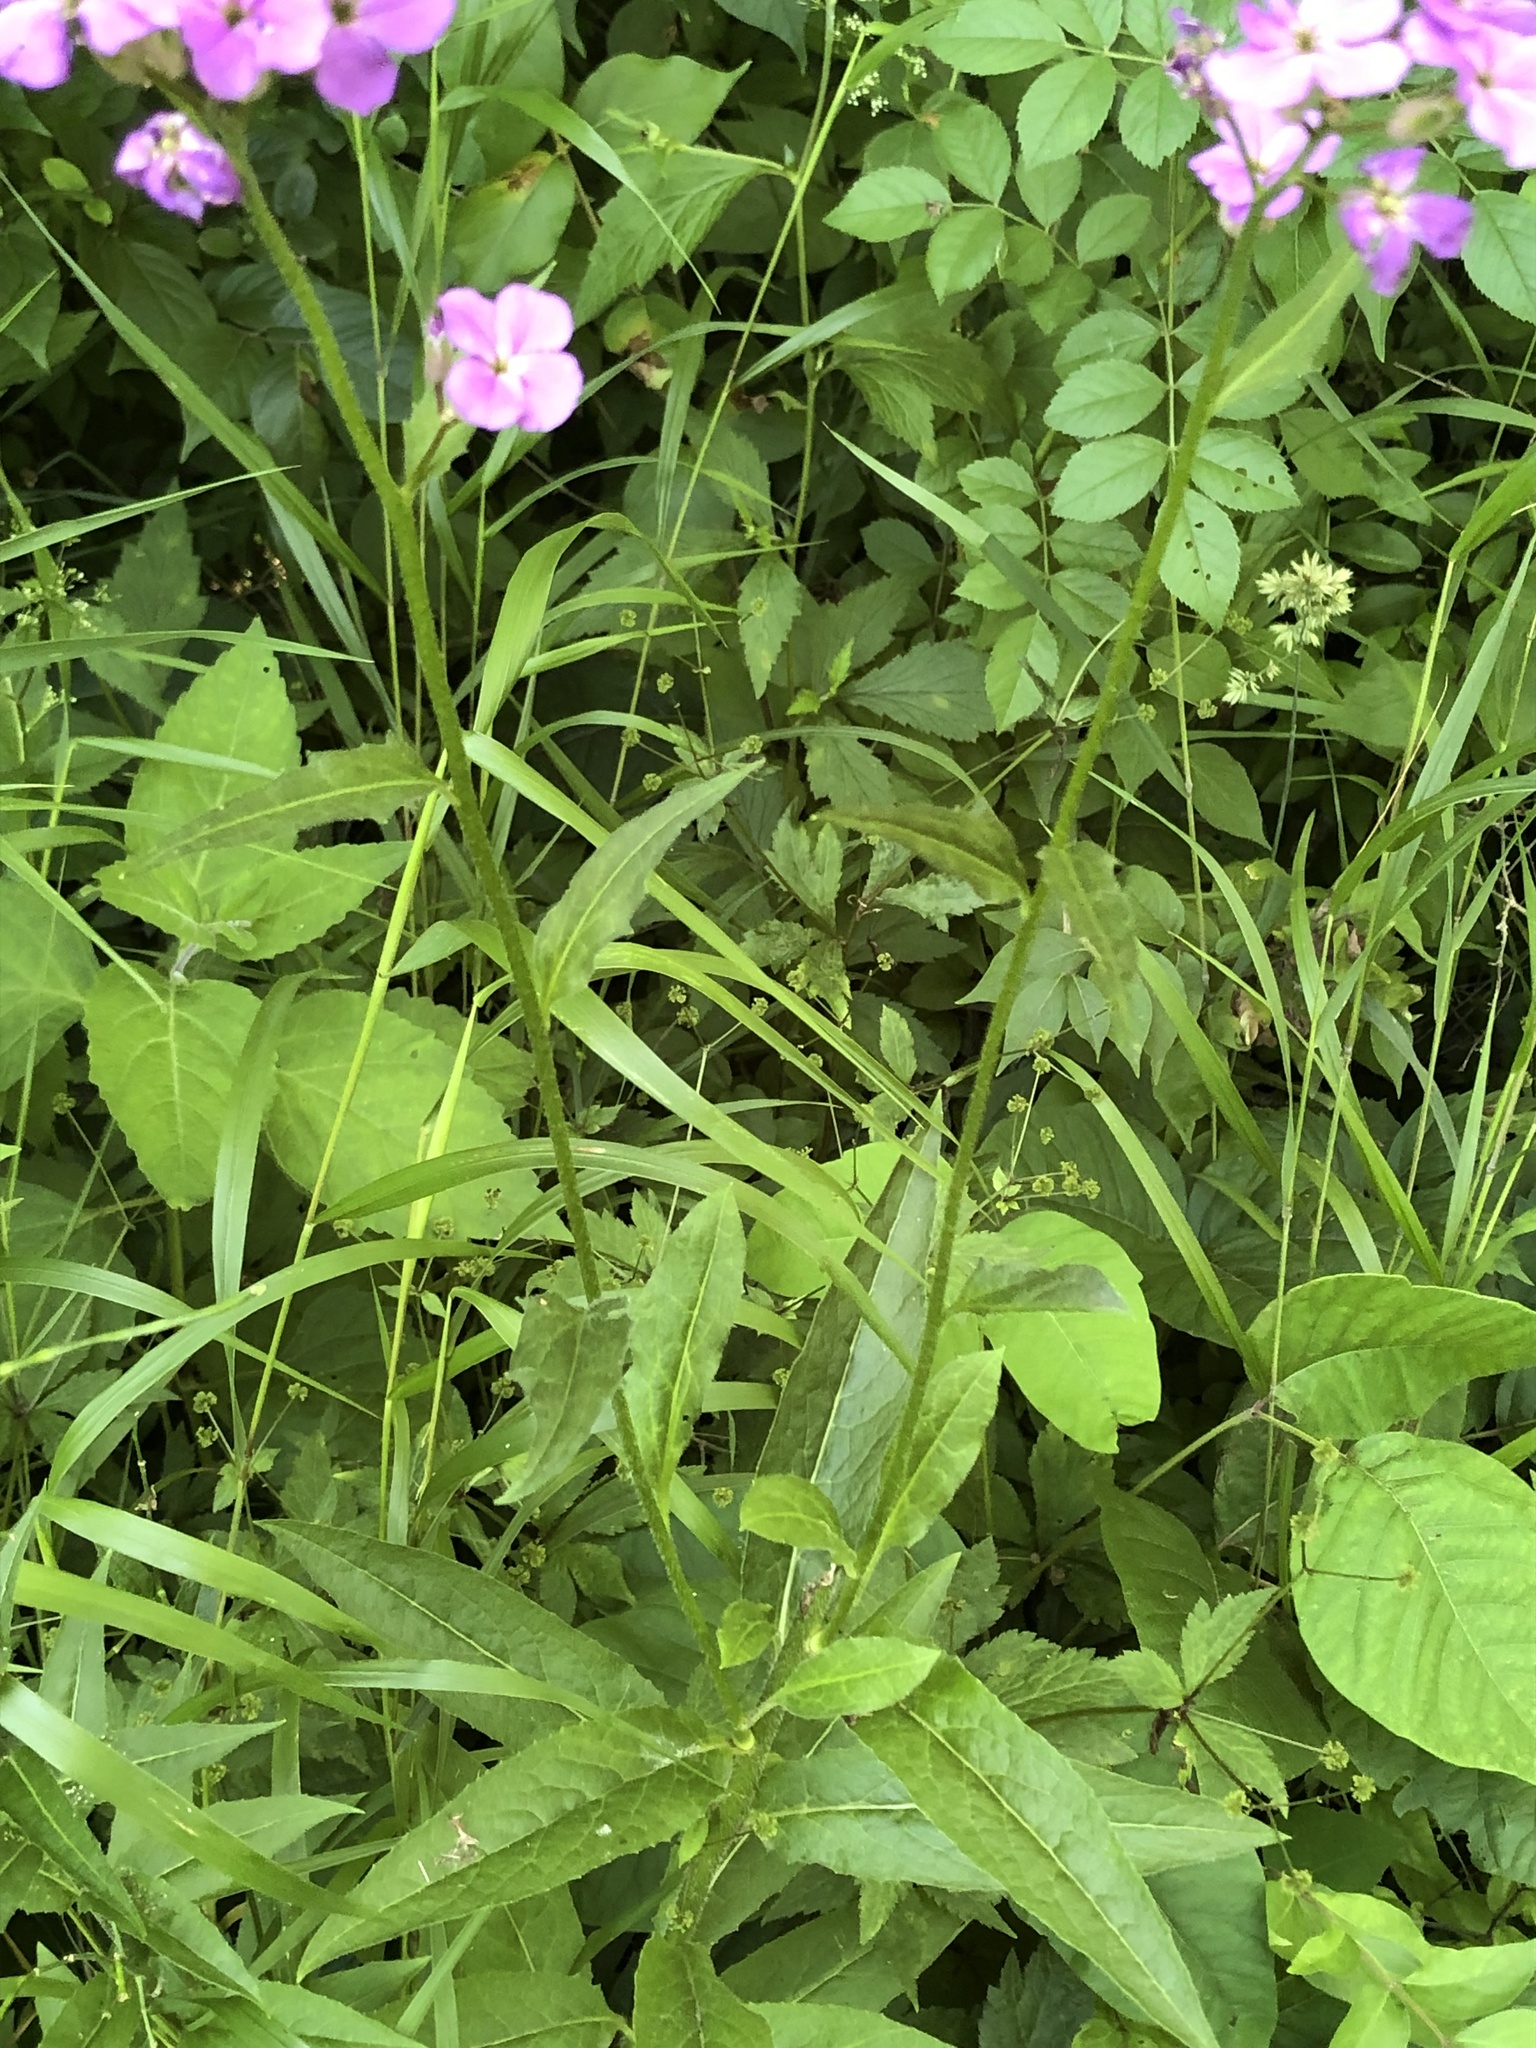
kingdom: Plantae
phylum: Tracheophyta
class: Magnoliopsida
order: Brassicales
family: Brassicaceae
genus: Hesperis
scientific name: Hesperis matronalis
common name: Dame's-violet
